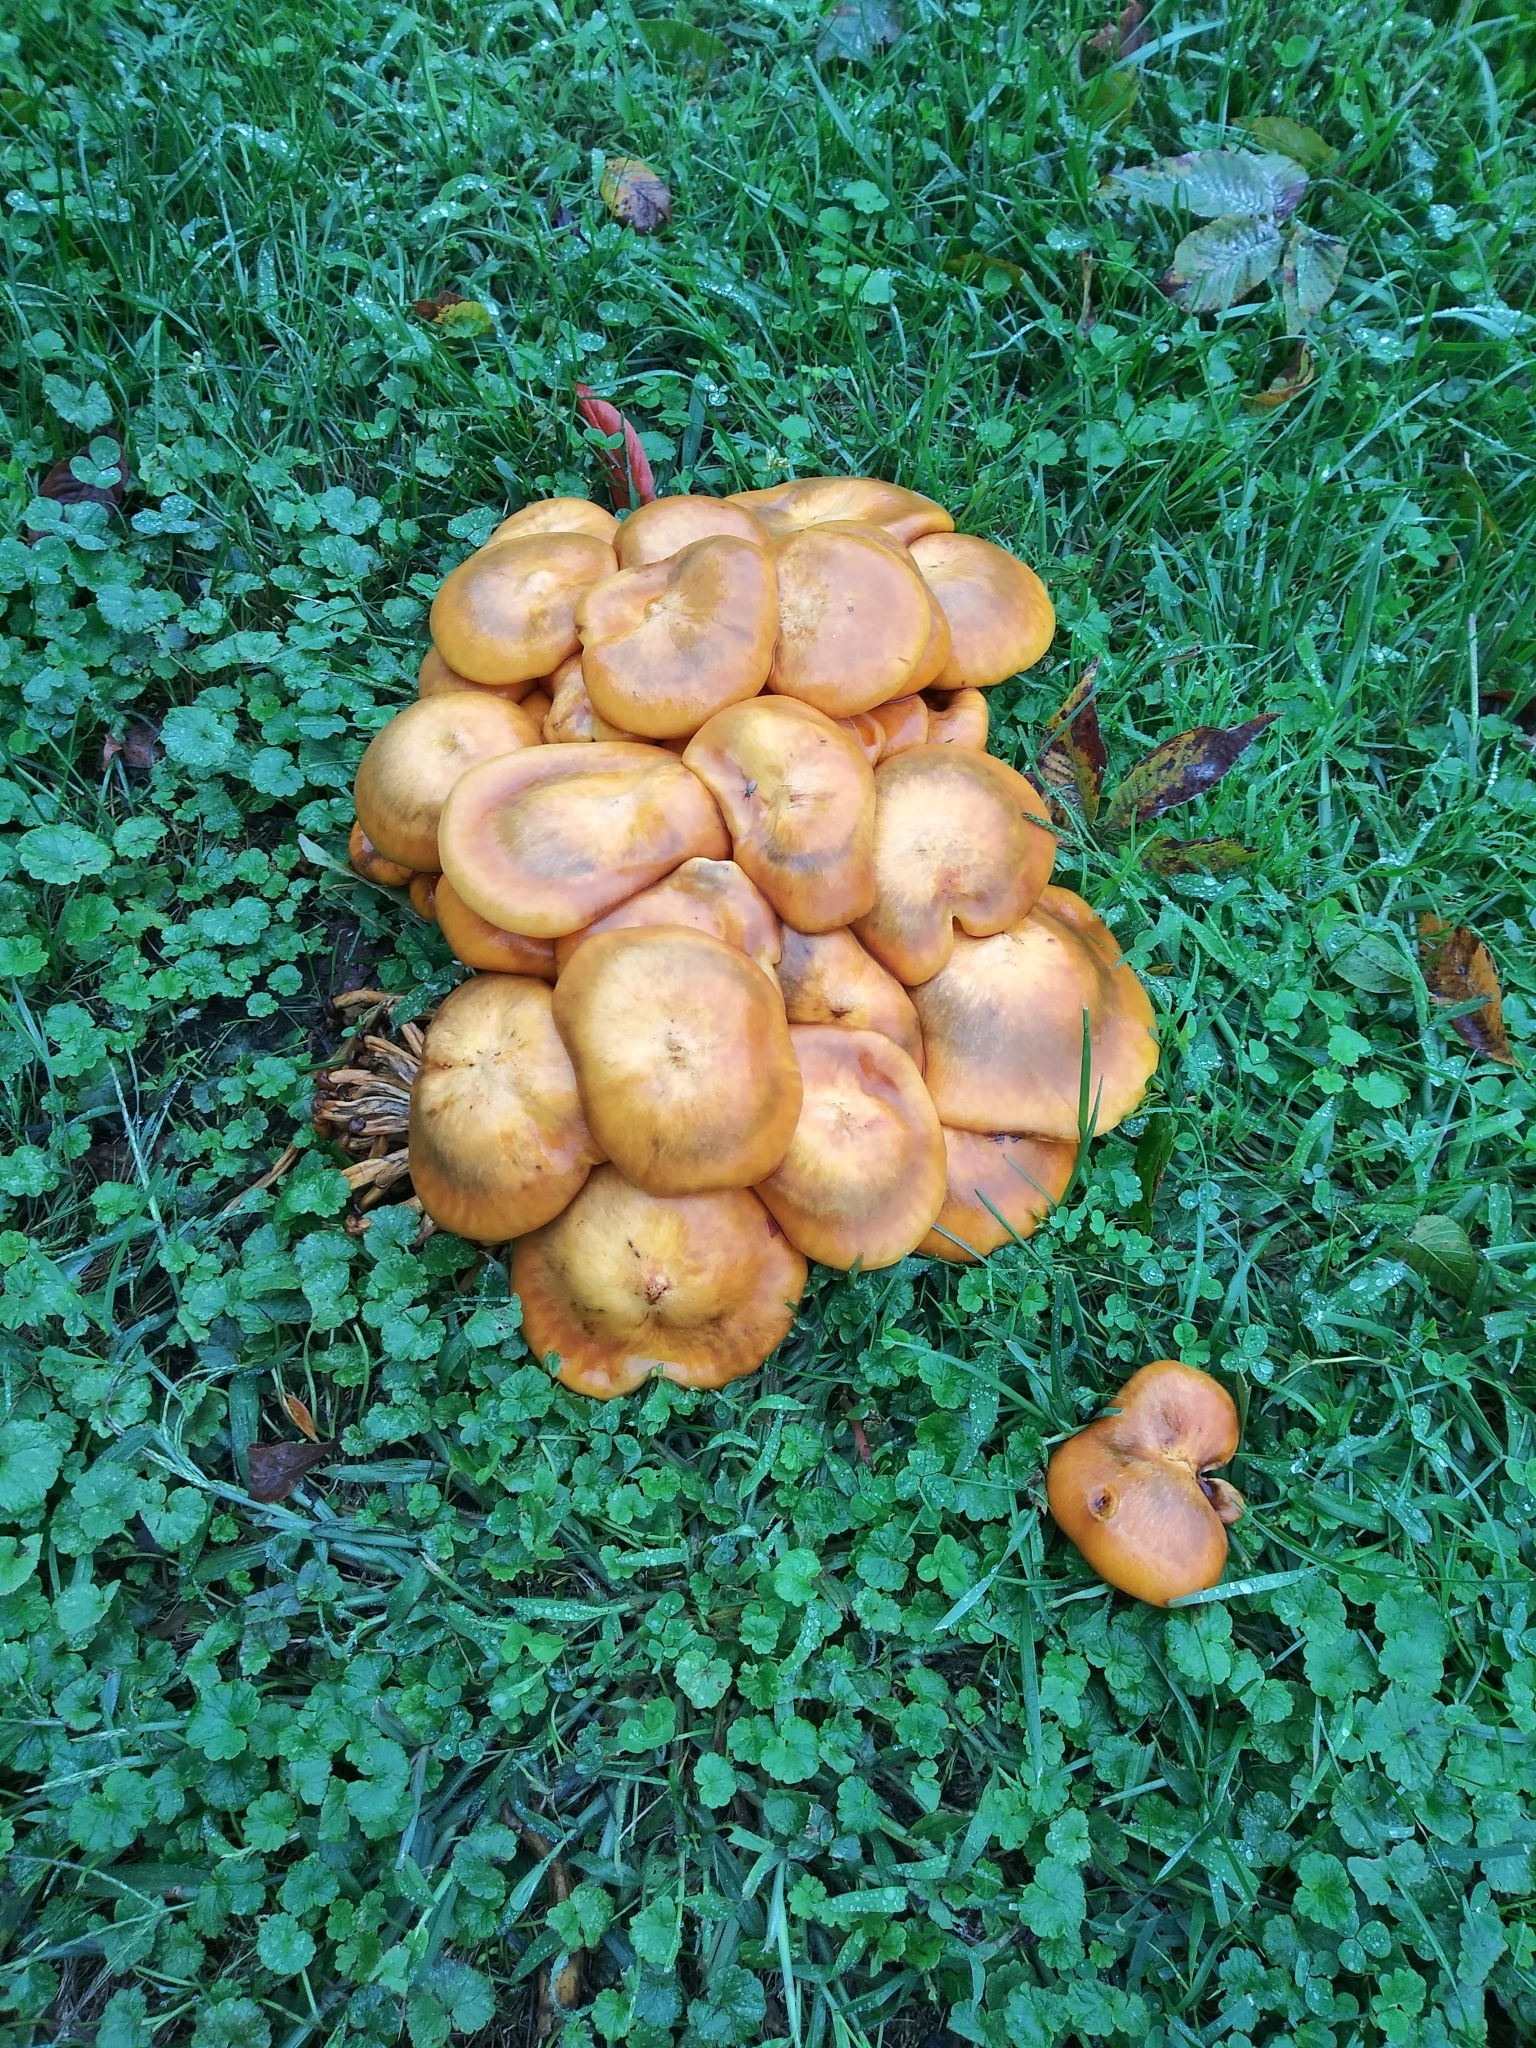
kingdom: Fungi
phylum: Basidiomycota
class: Agaricomycetes
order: Agaricales
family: Omphalotaceae
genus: Omphalotus
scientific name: Omphalotus illudens
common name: Jack o lantern
